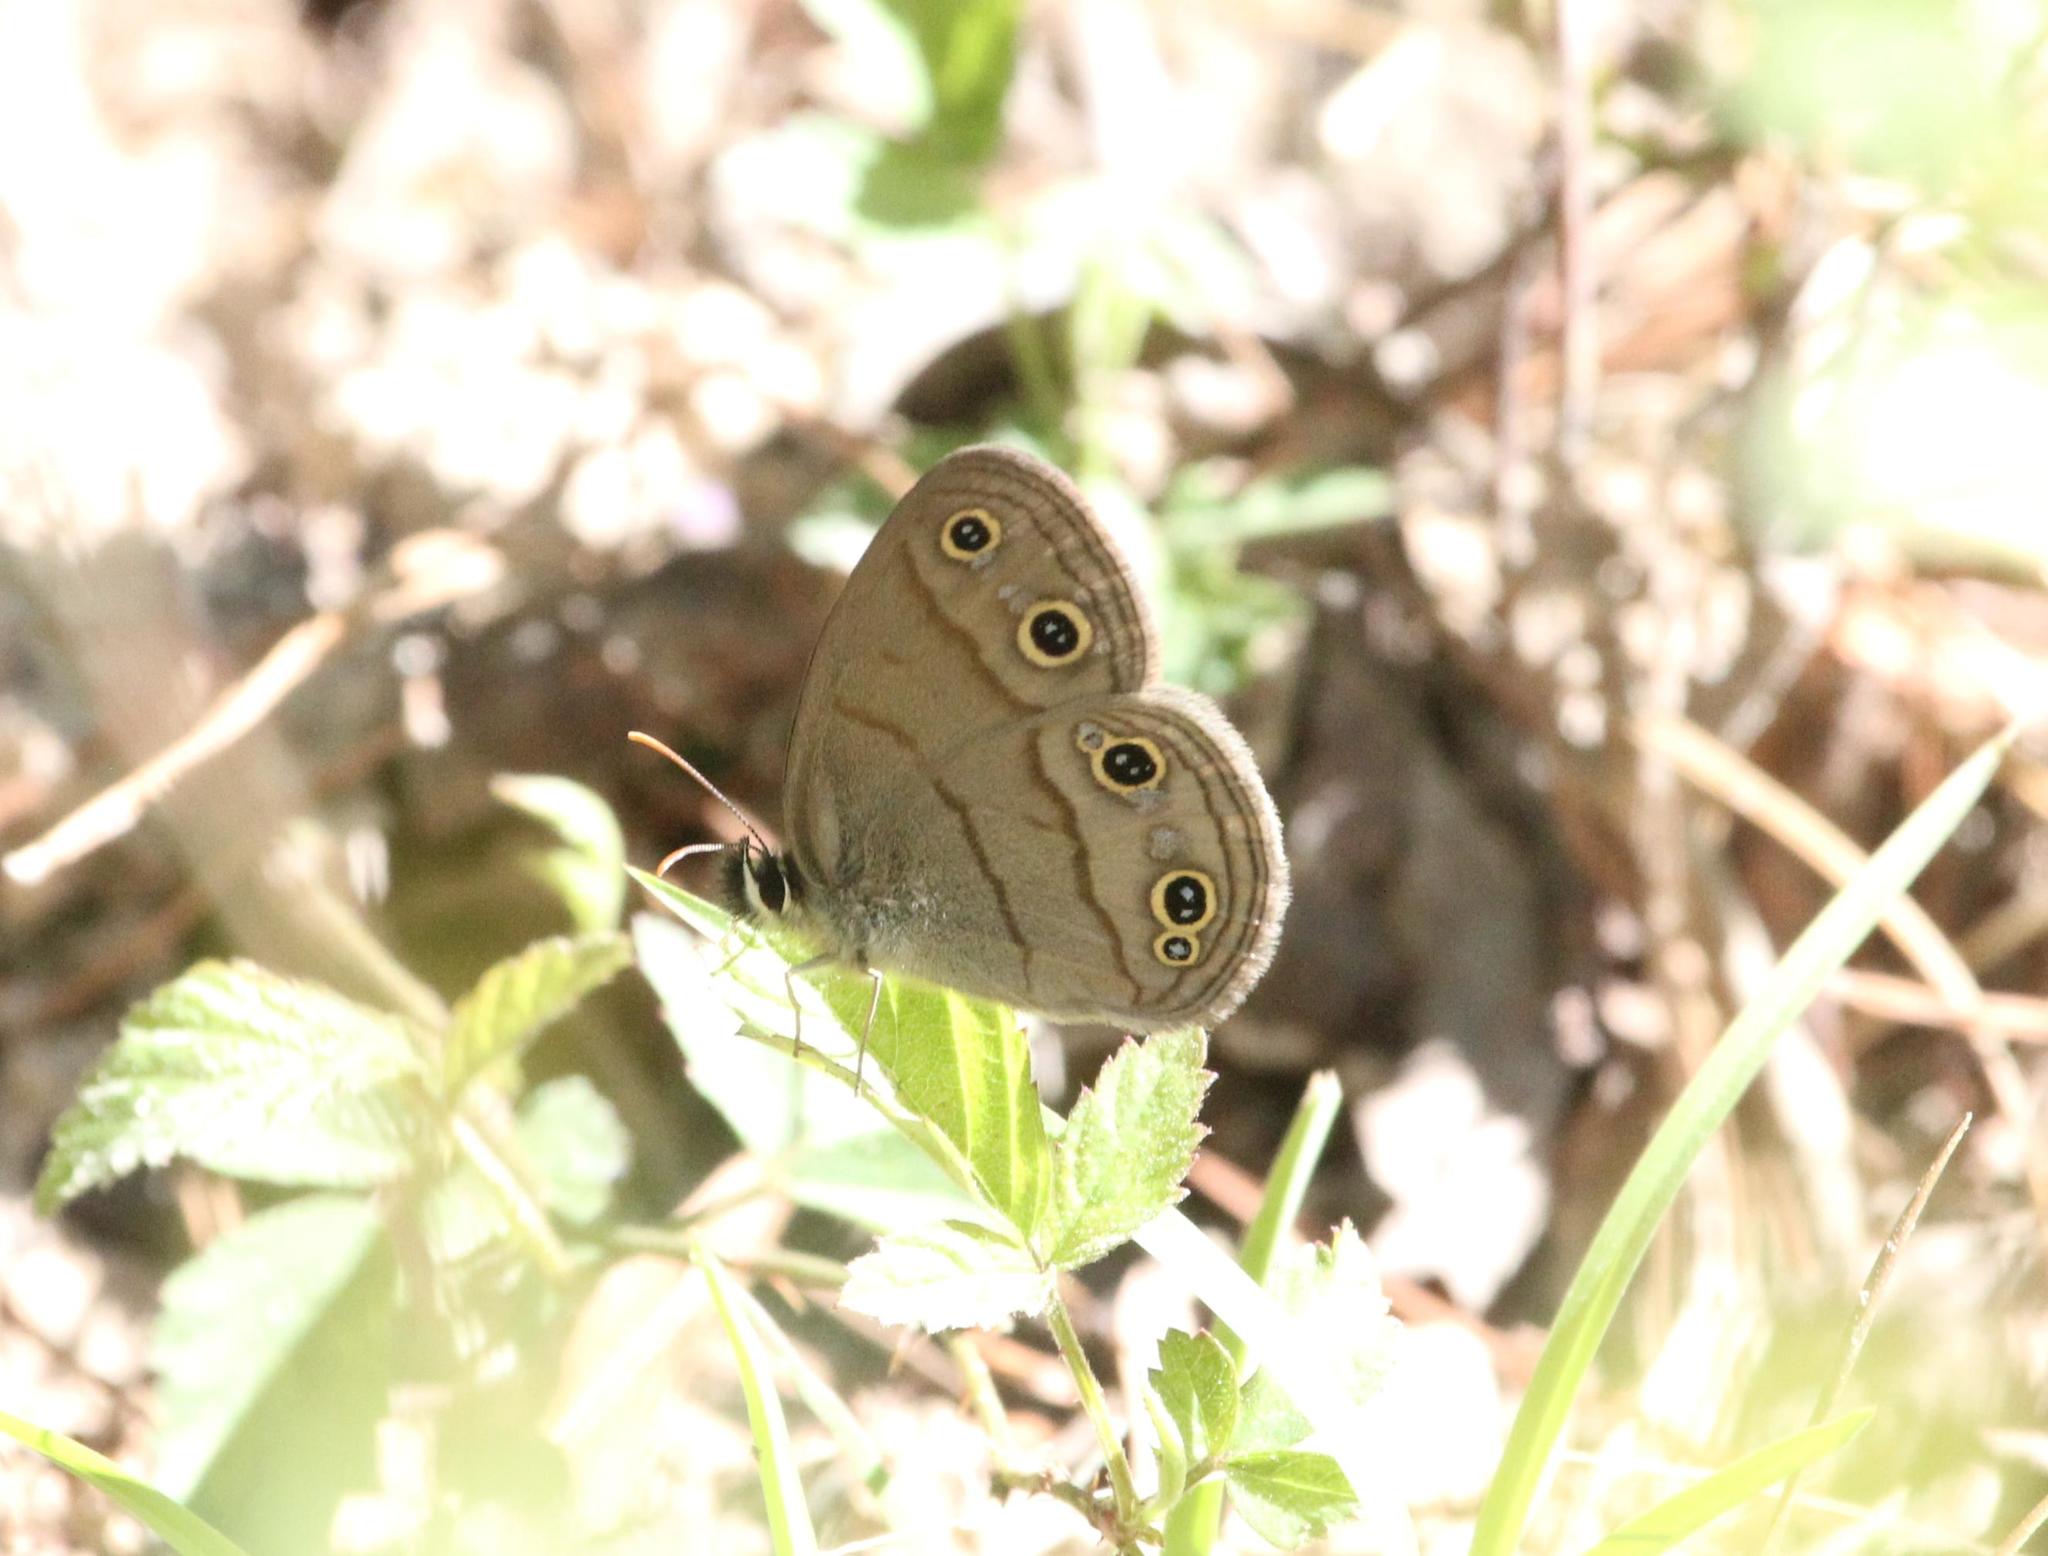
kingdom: Animalia
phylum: Arthropoda
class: Insecta
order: Lepidoptera
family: Nymphalidae
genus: Euptychia
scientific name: Euptychia cymela
